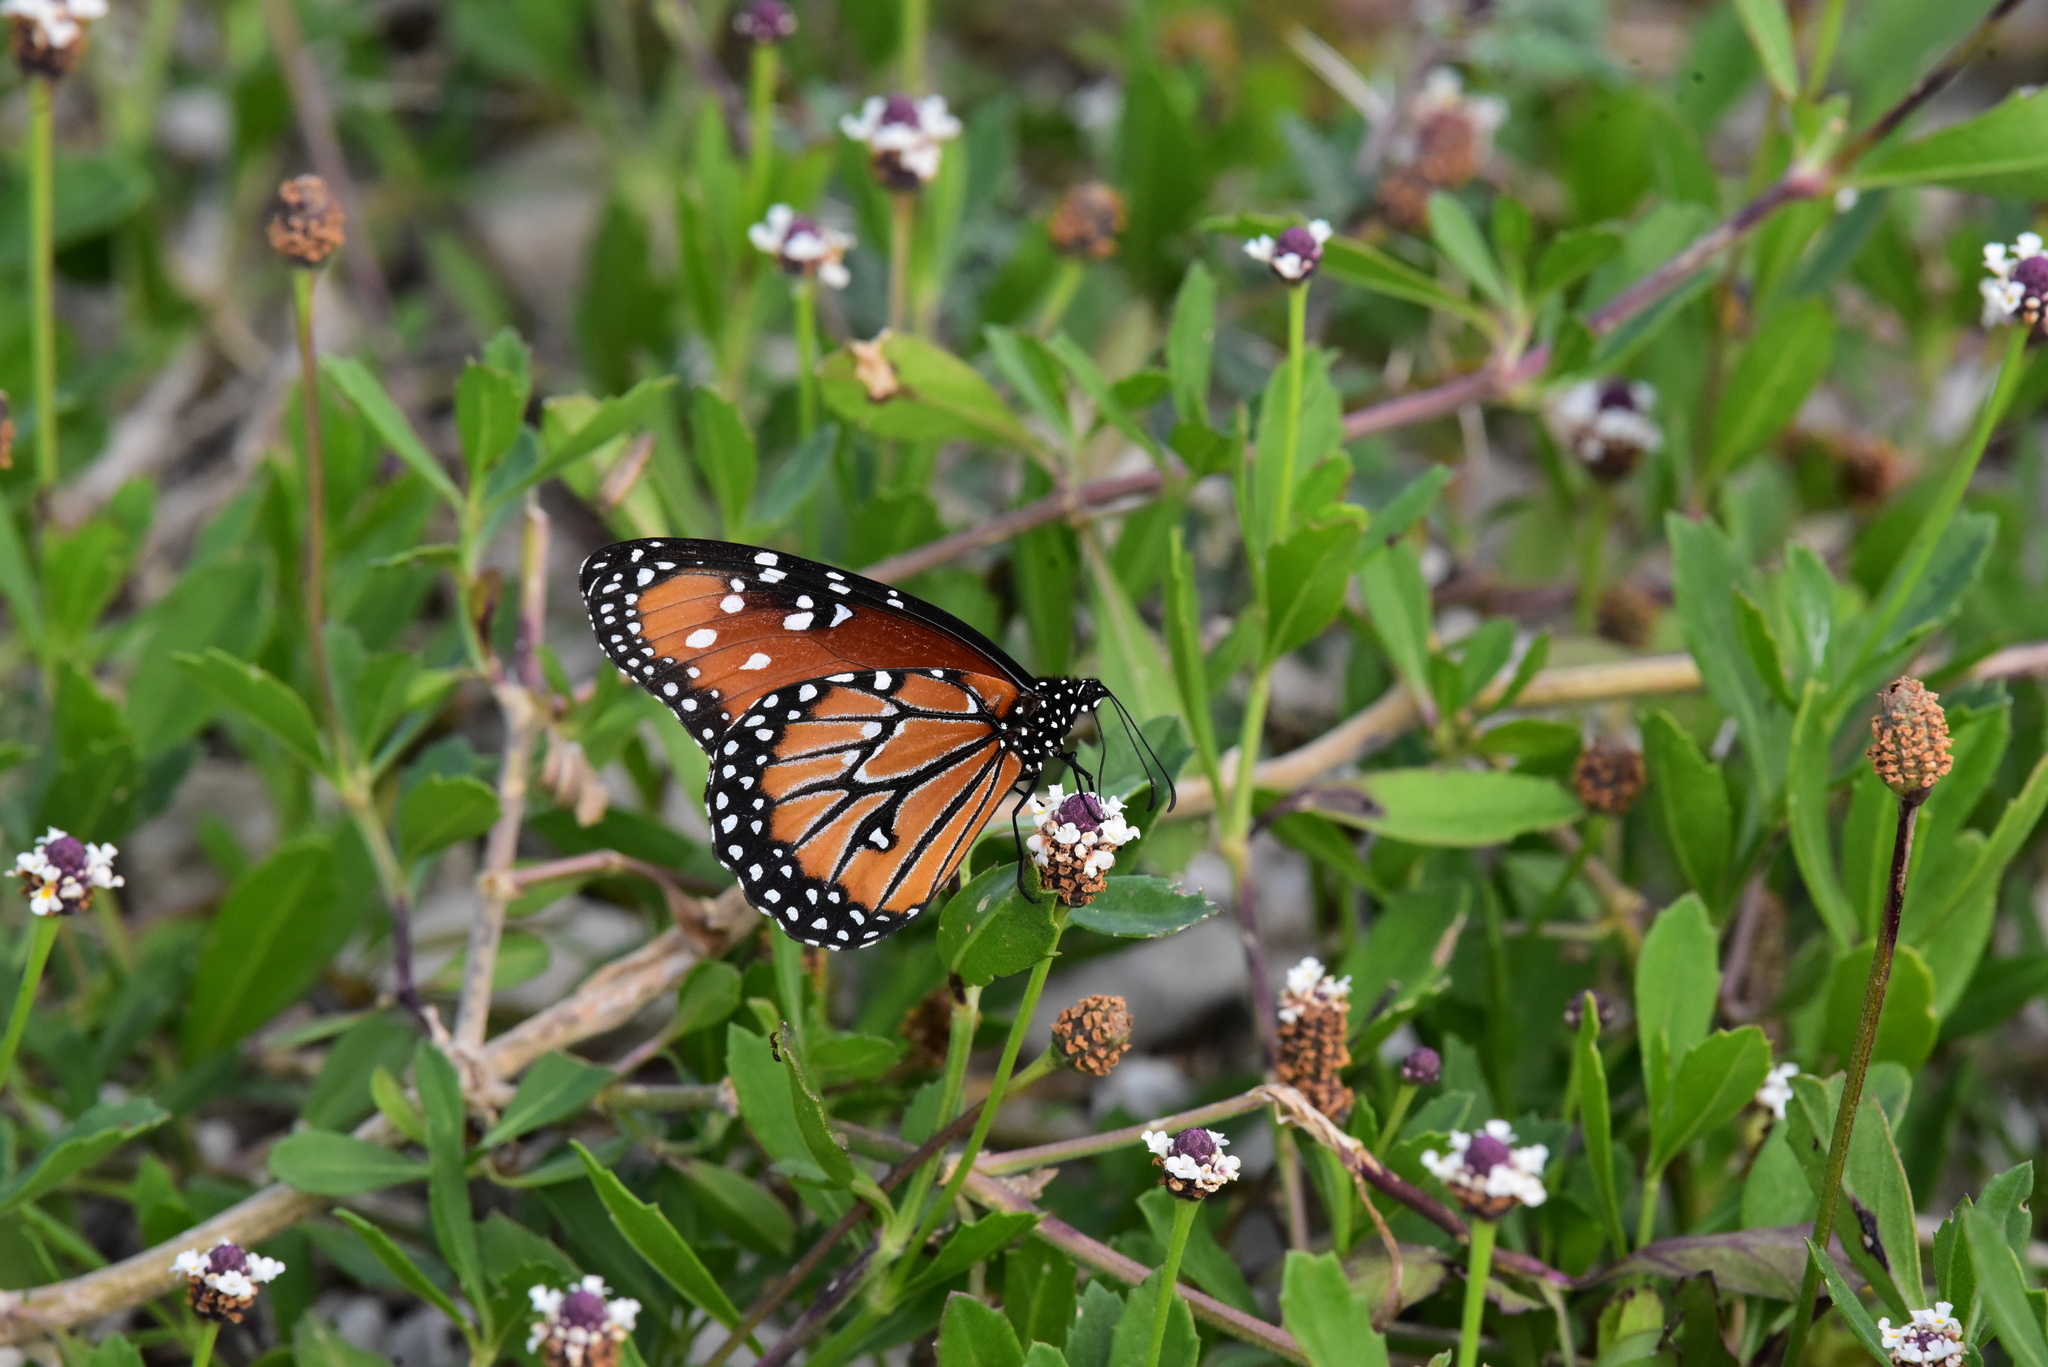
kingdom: Animalia
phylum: Arthropoda
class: Insecta
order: Lepidoptera
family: Nymphalidae
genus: Danaus
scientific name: Danaus gilippus
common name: Queen
